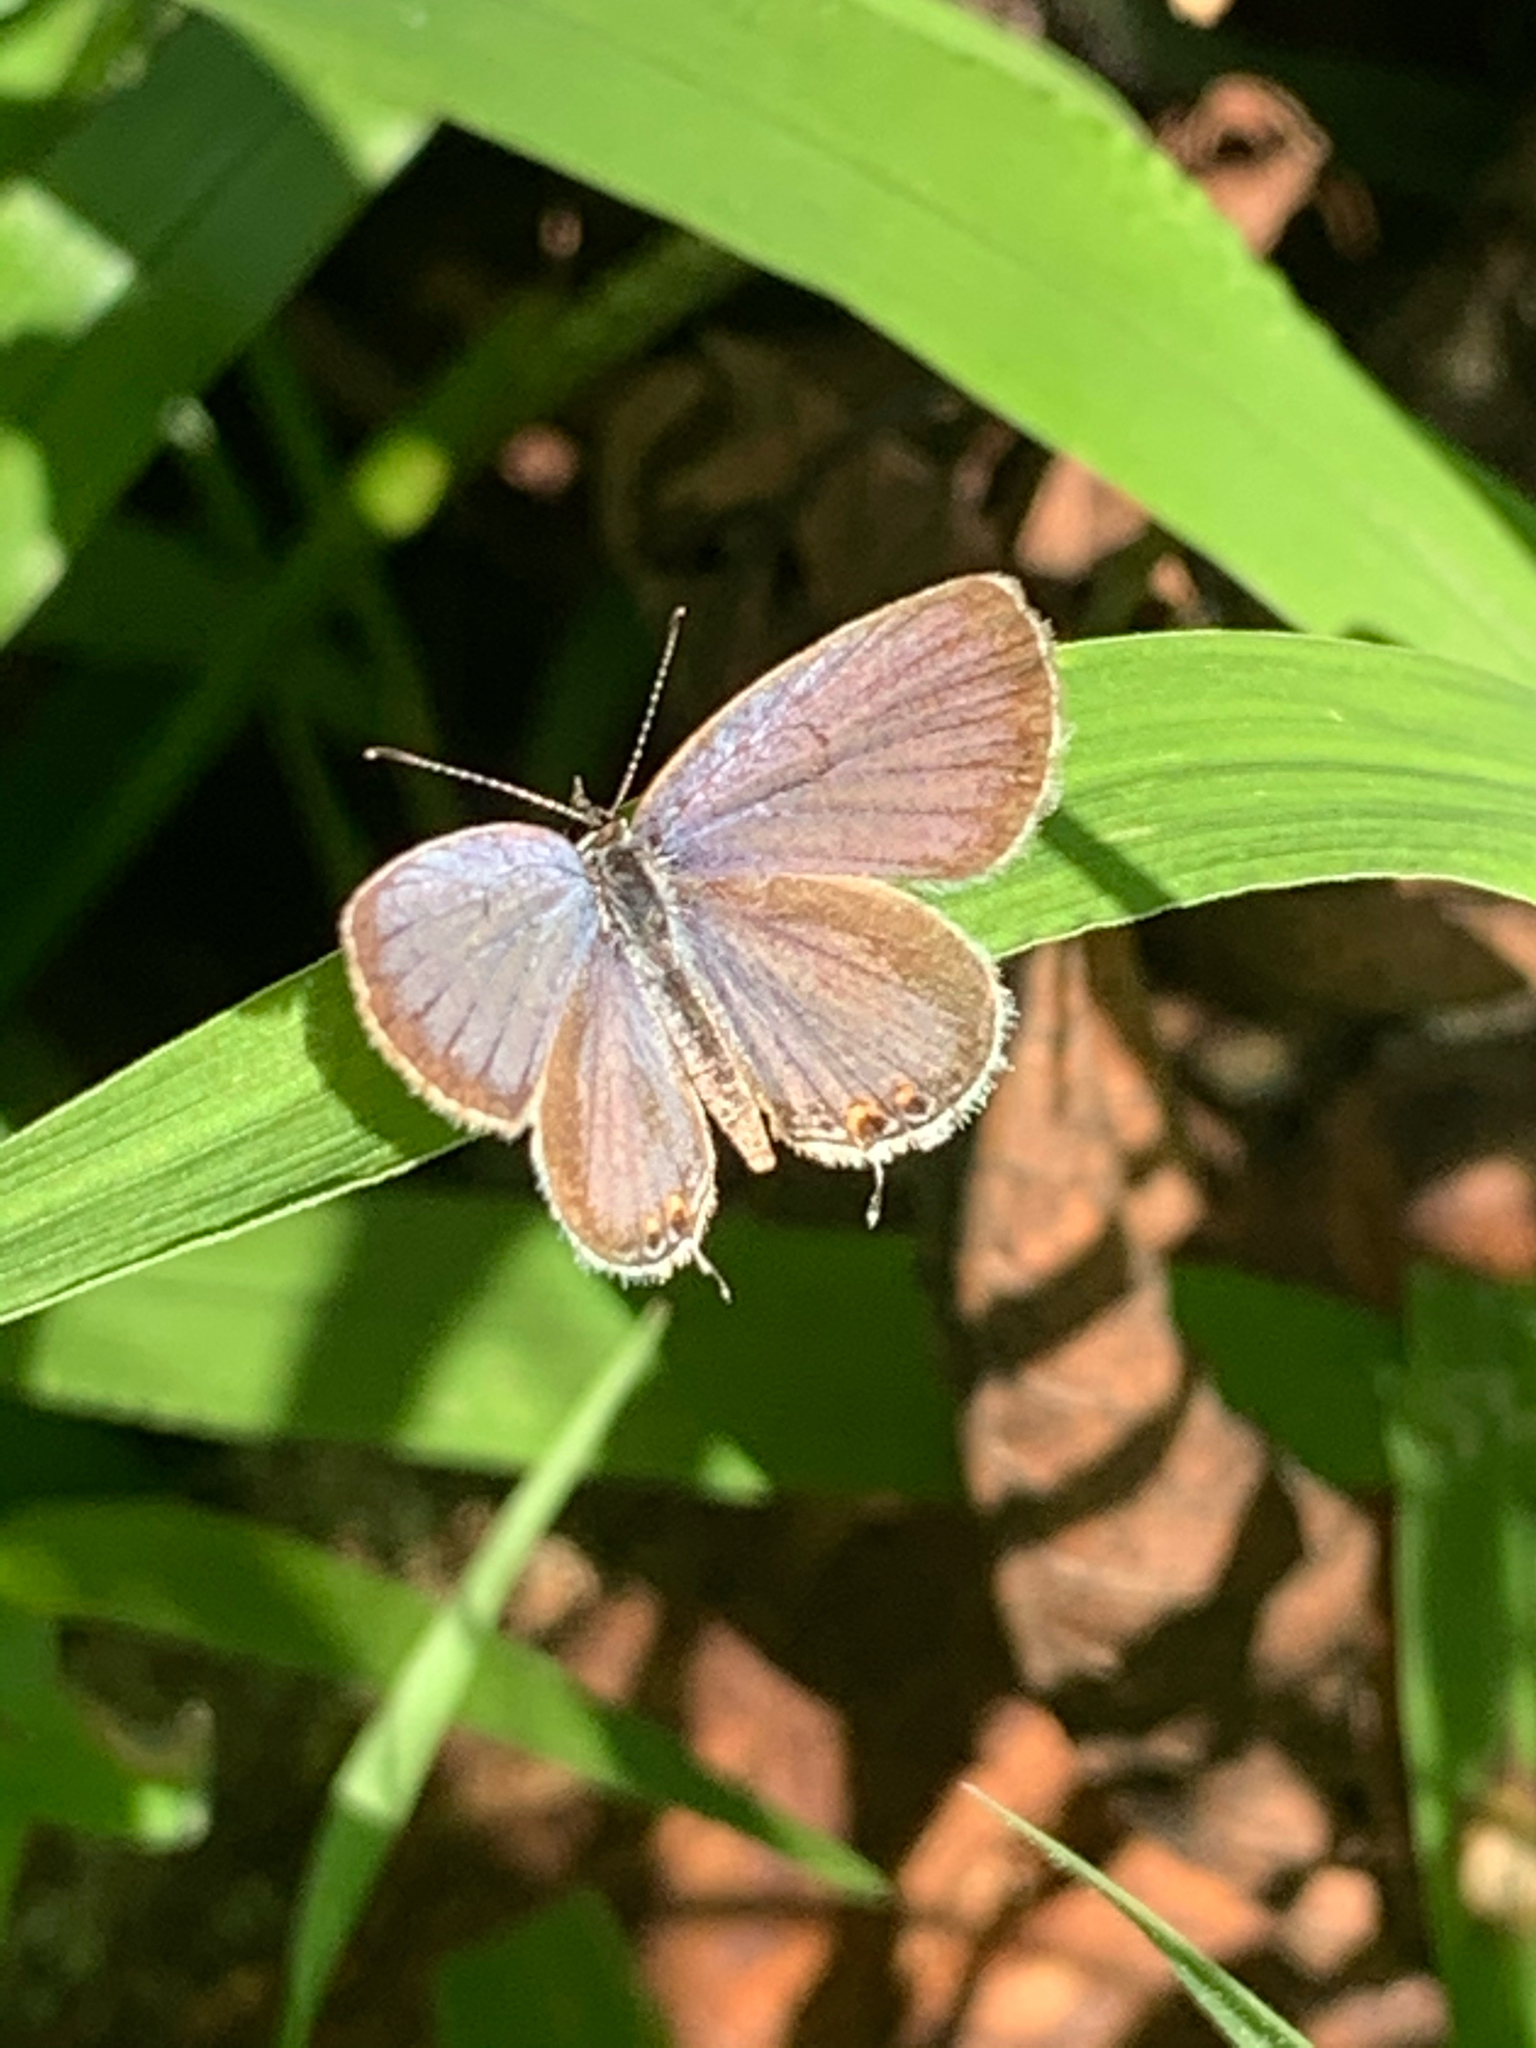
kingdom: Animalia
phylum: Arthropoda
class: Insecta
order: Lepidoptera
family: Lycaenidae
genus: Elkalyce
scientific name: Elkalyce comyntas
